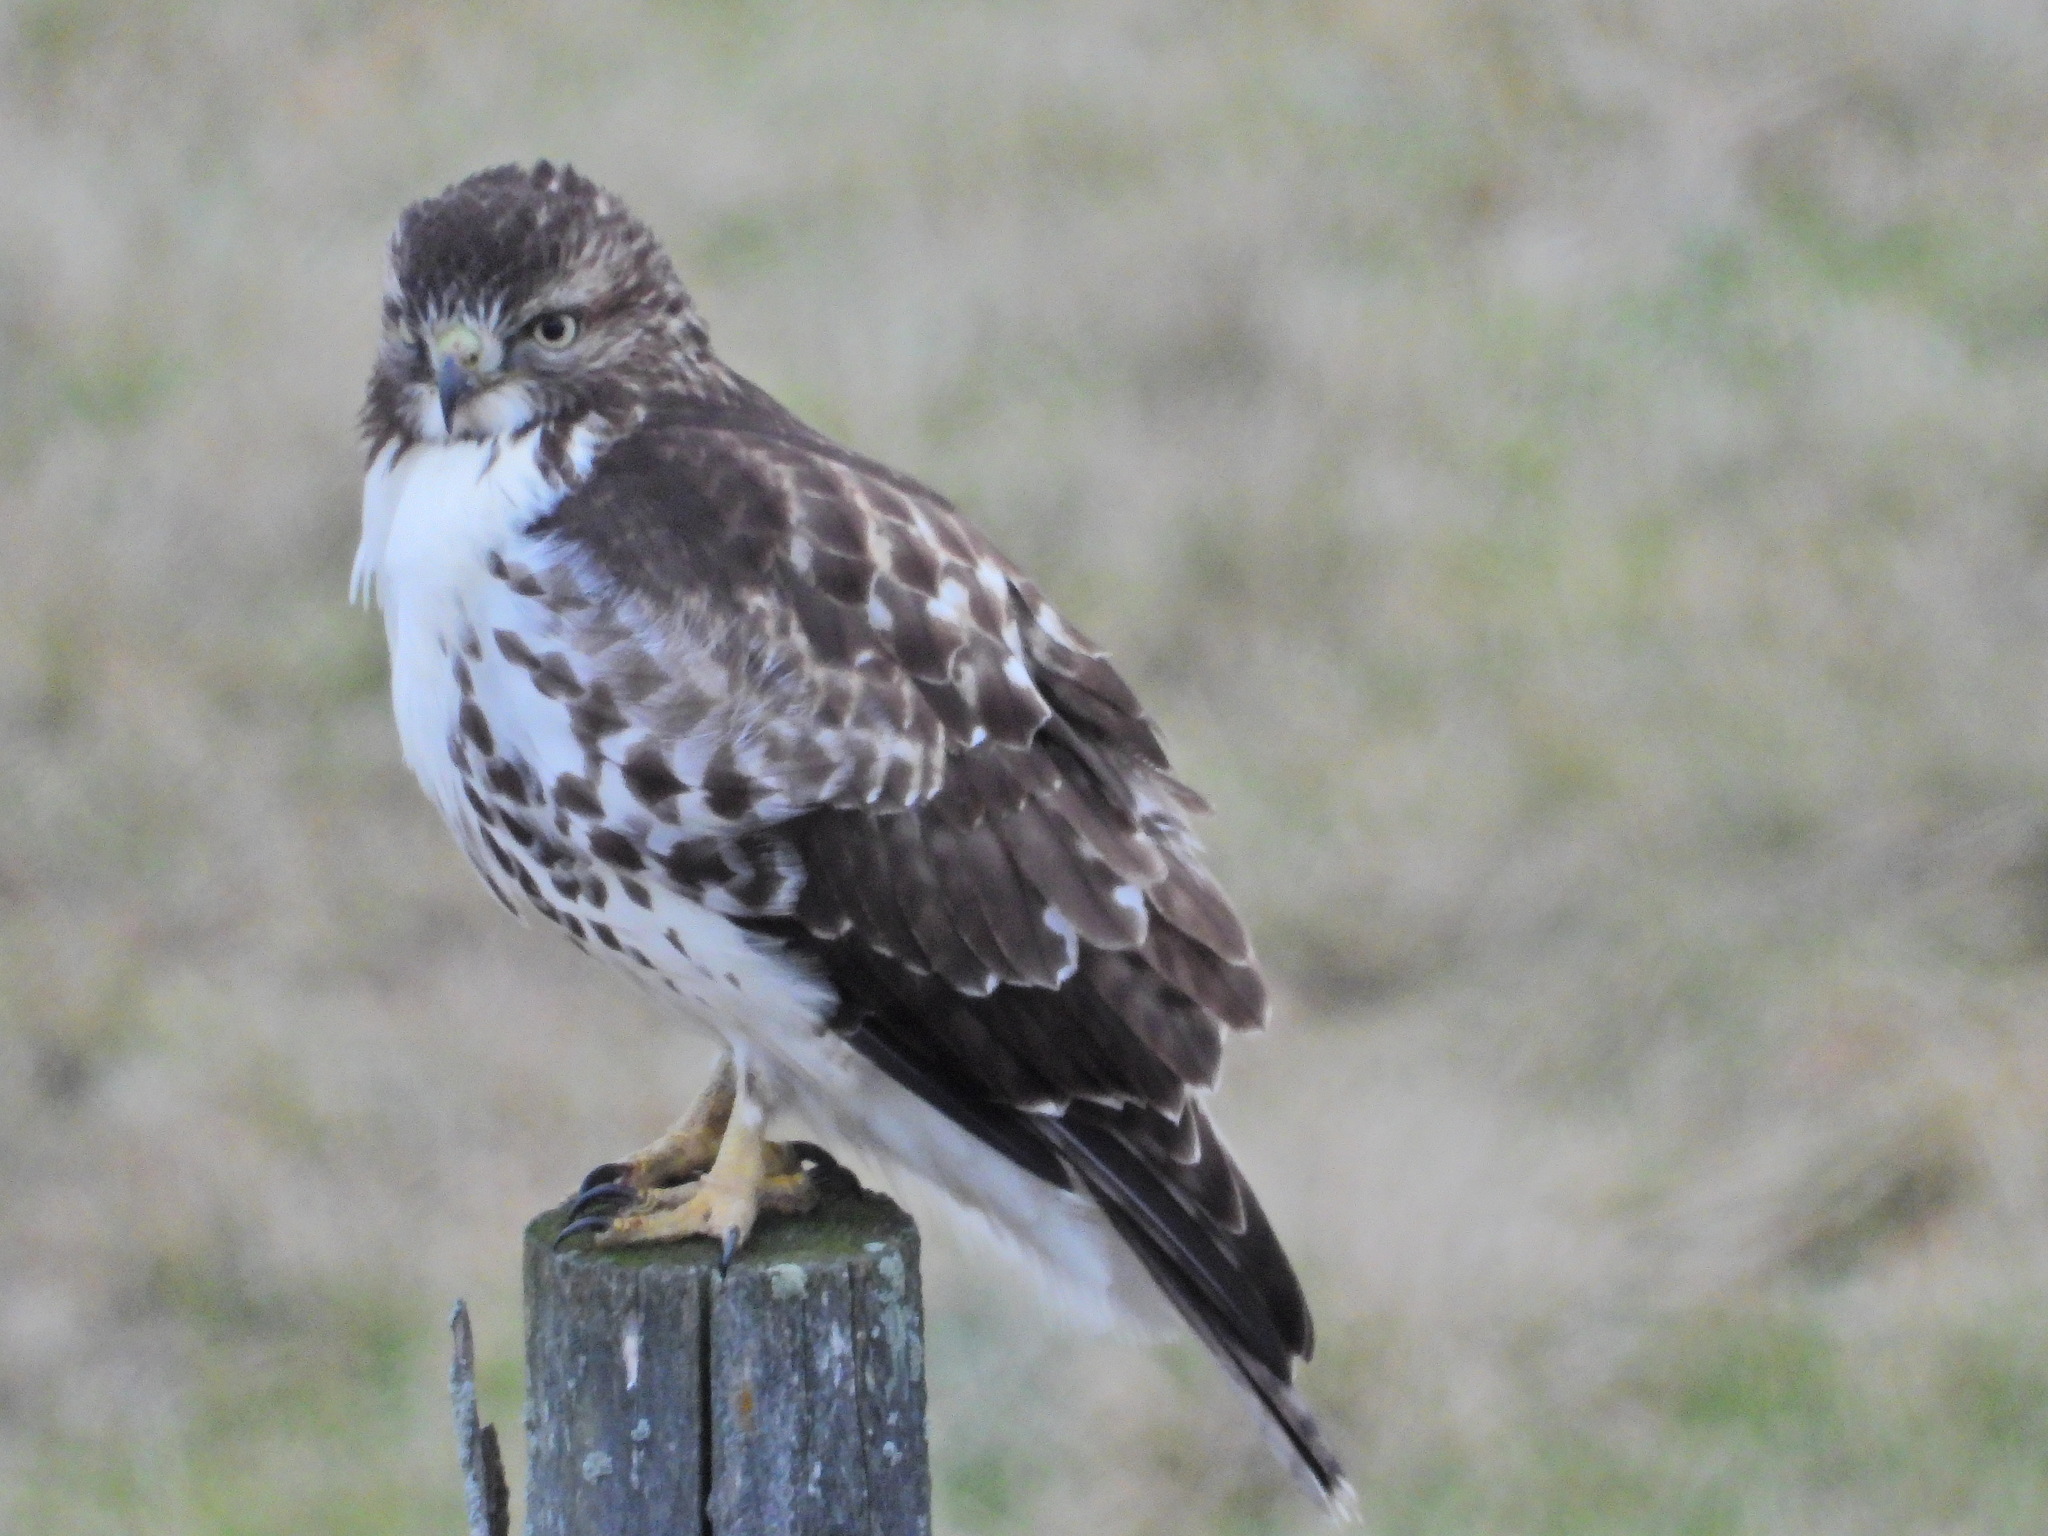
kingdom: Animalia
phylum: Chordata
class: Aves
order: Accipitriformes
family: Accipitridae
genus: Buteo
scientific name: Buteo jamaicensis
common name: Red-tailed hawk
